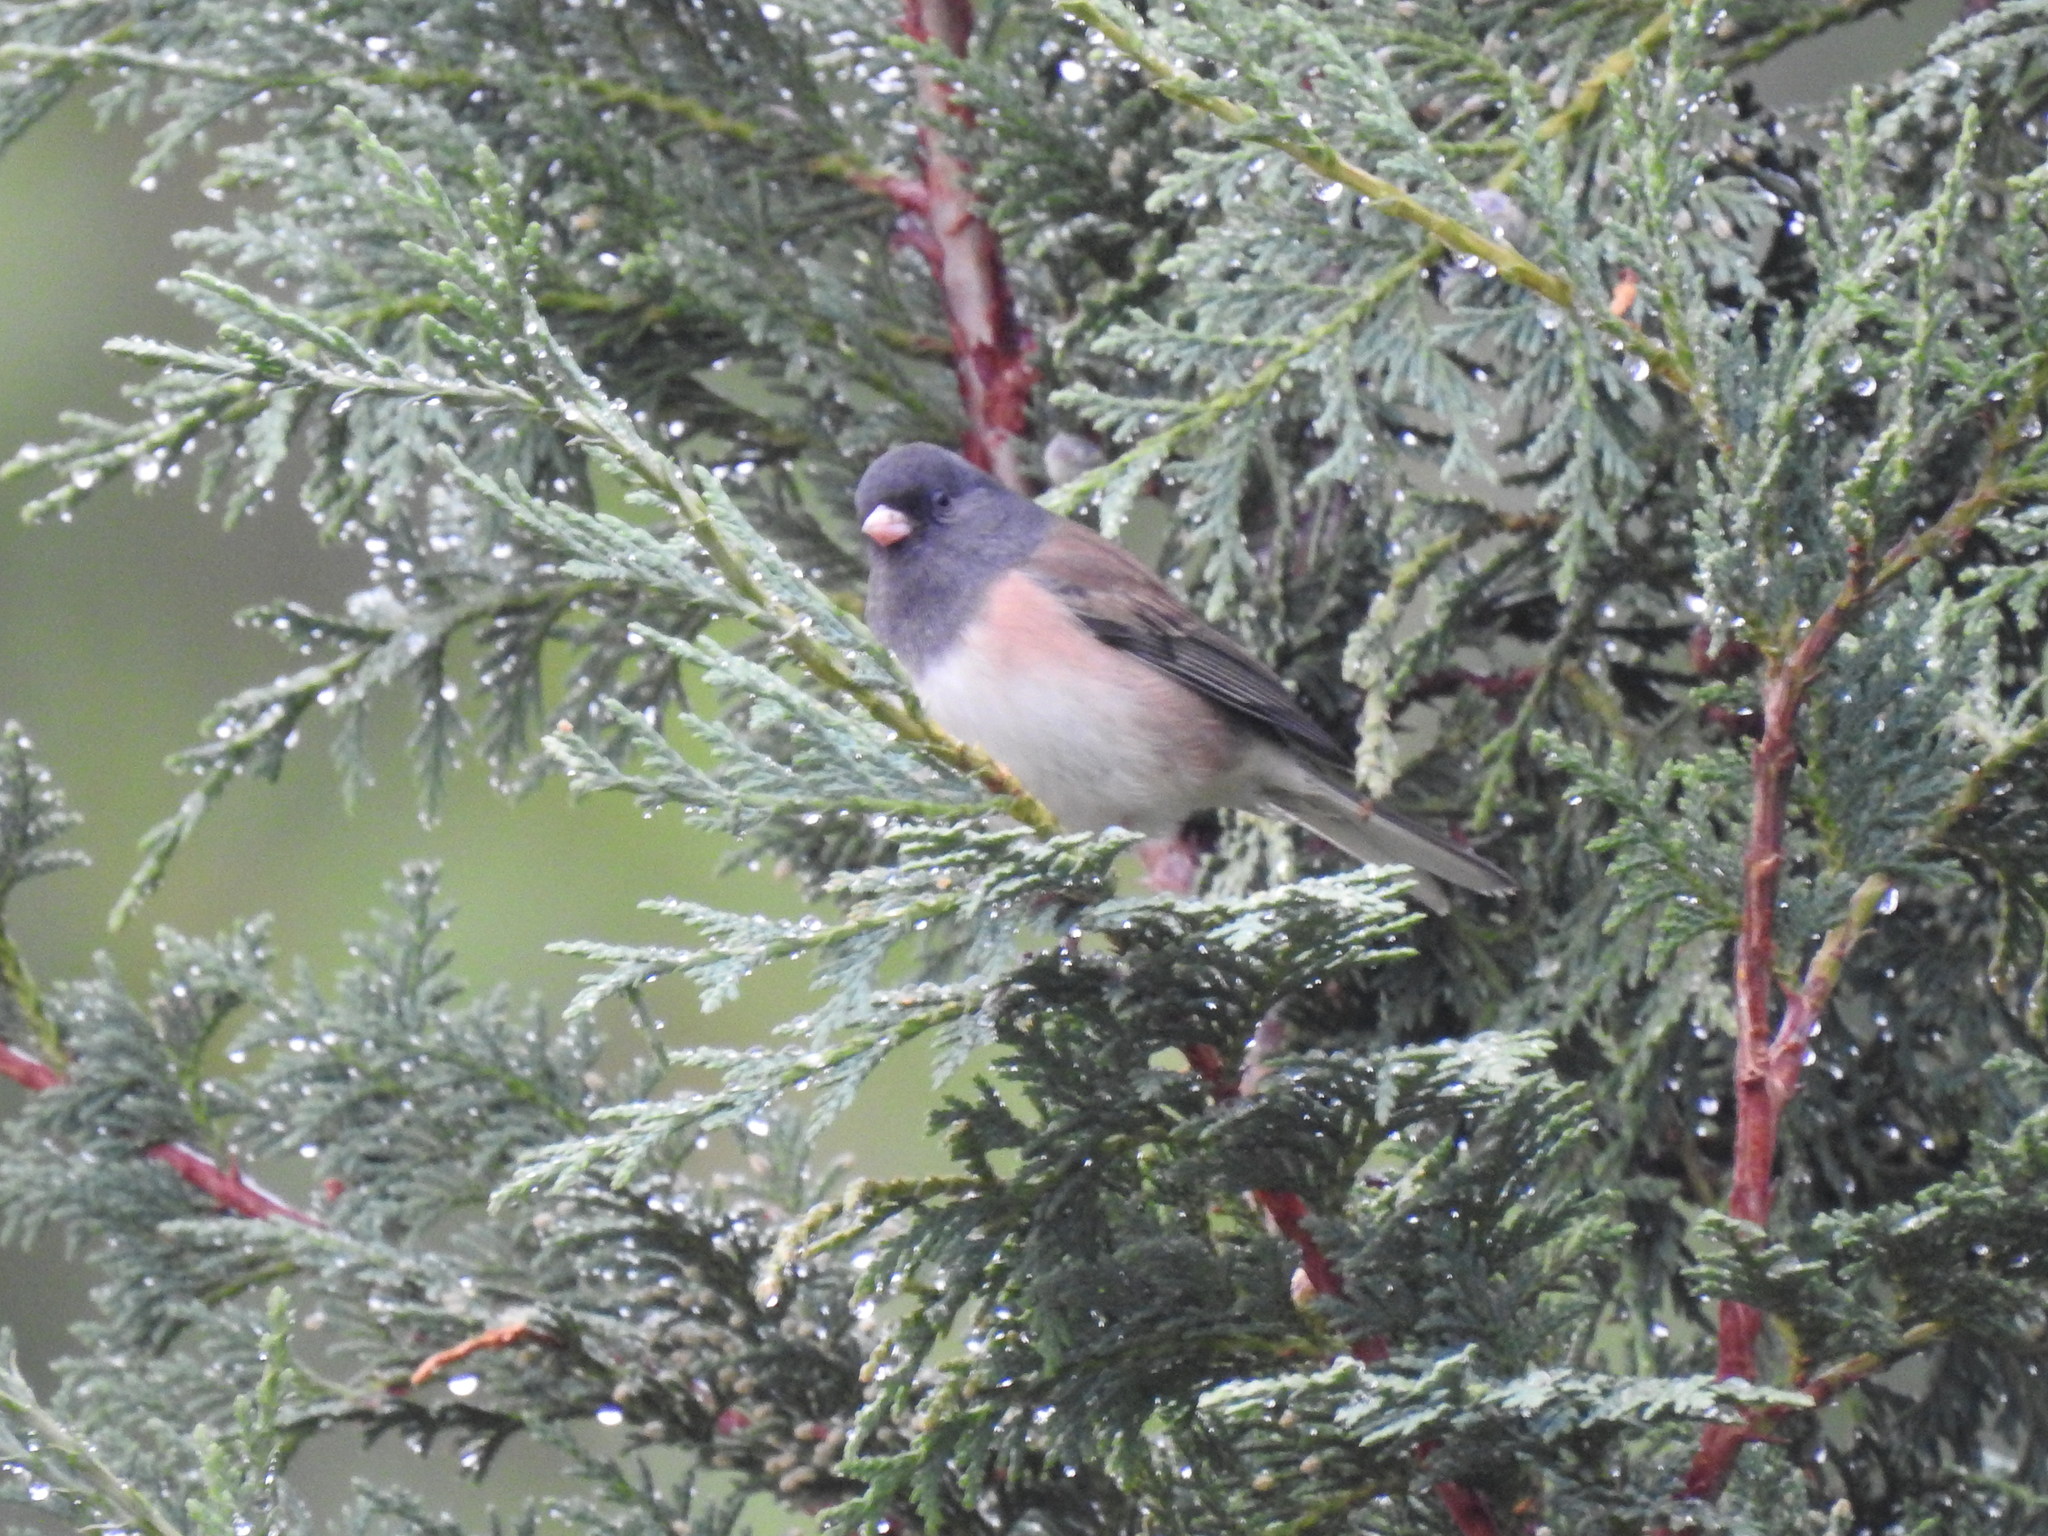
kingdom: Animalia
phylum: Chordata
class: Aves
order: Passeriformes
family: Passerellidae
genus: Junco
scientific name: Junco hyemalis
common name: Dark-eyed junco
